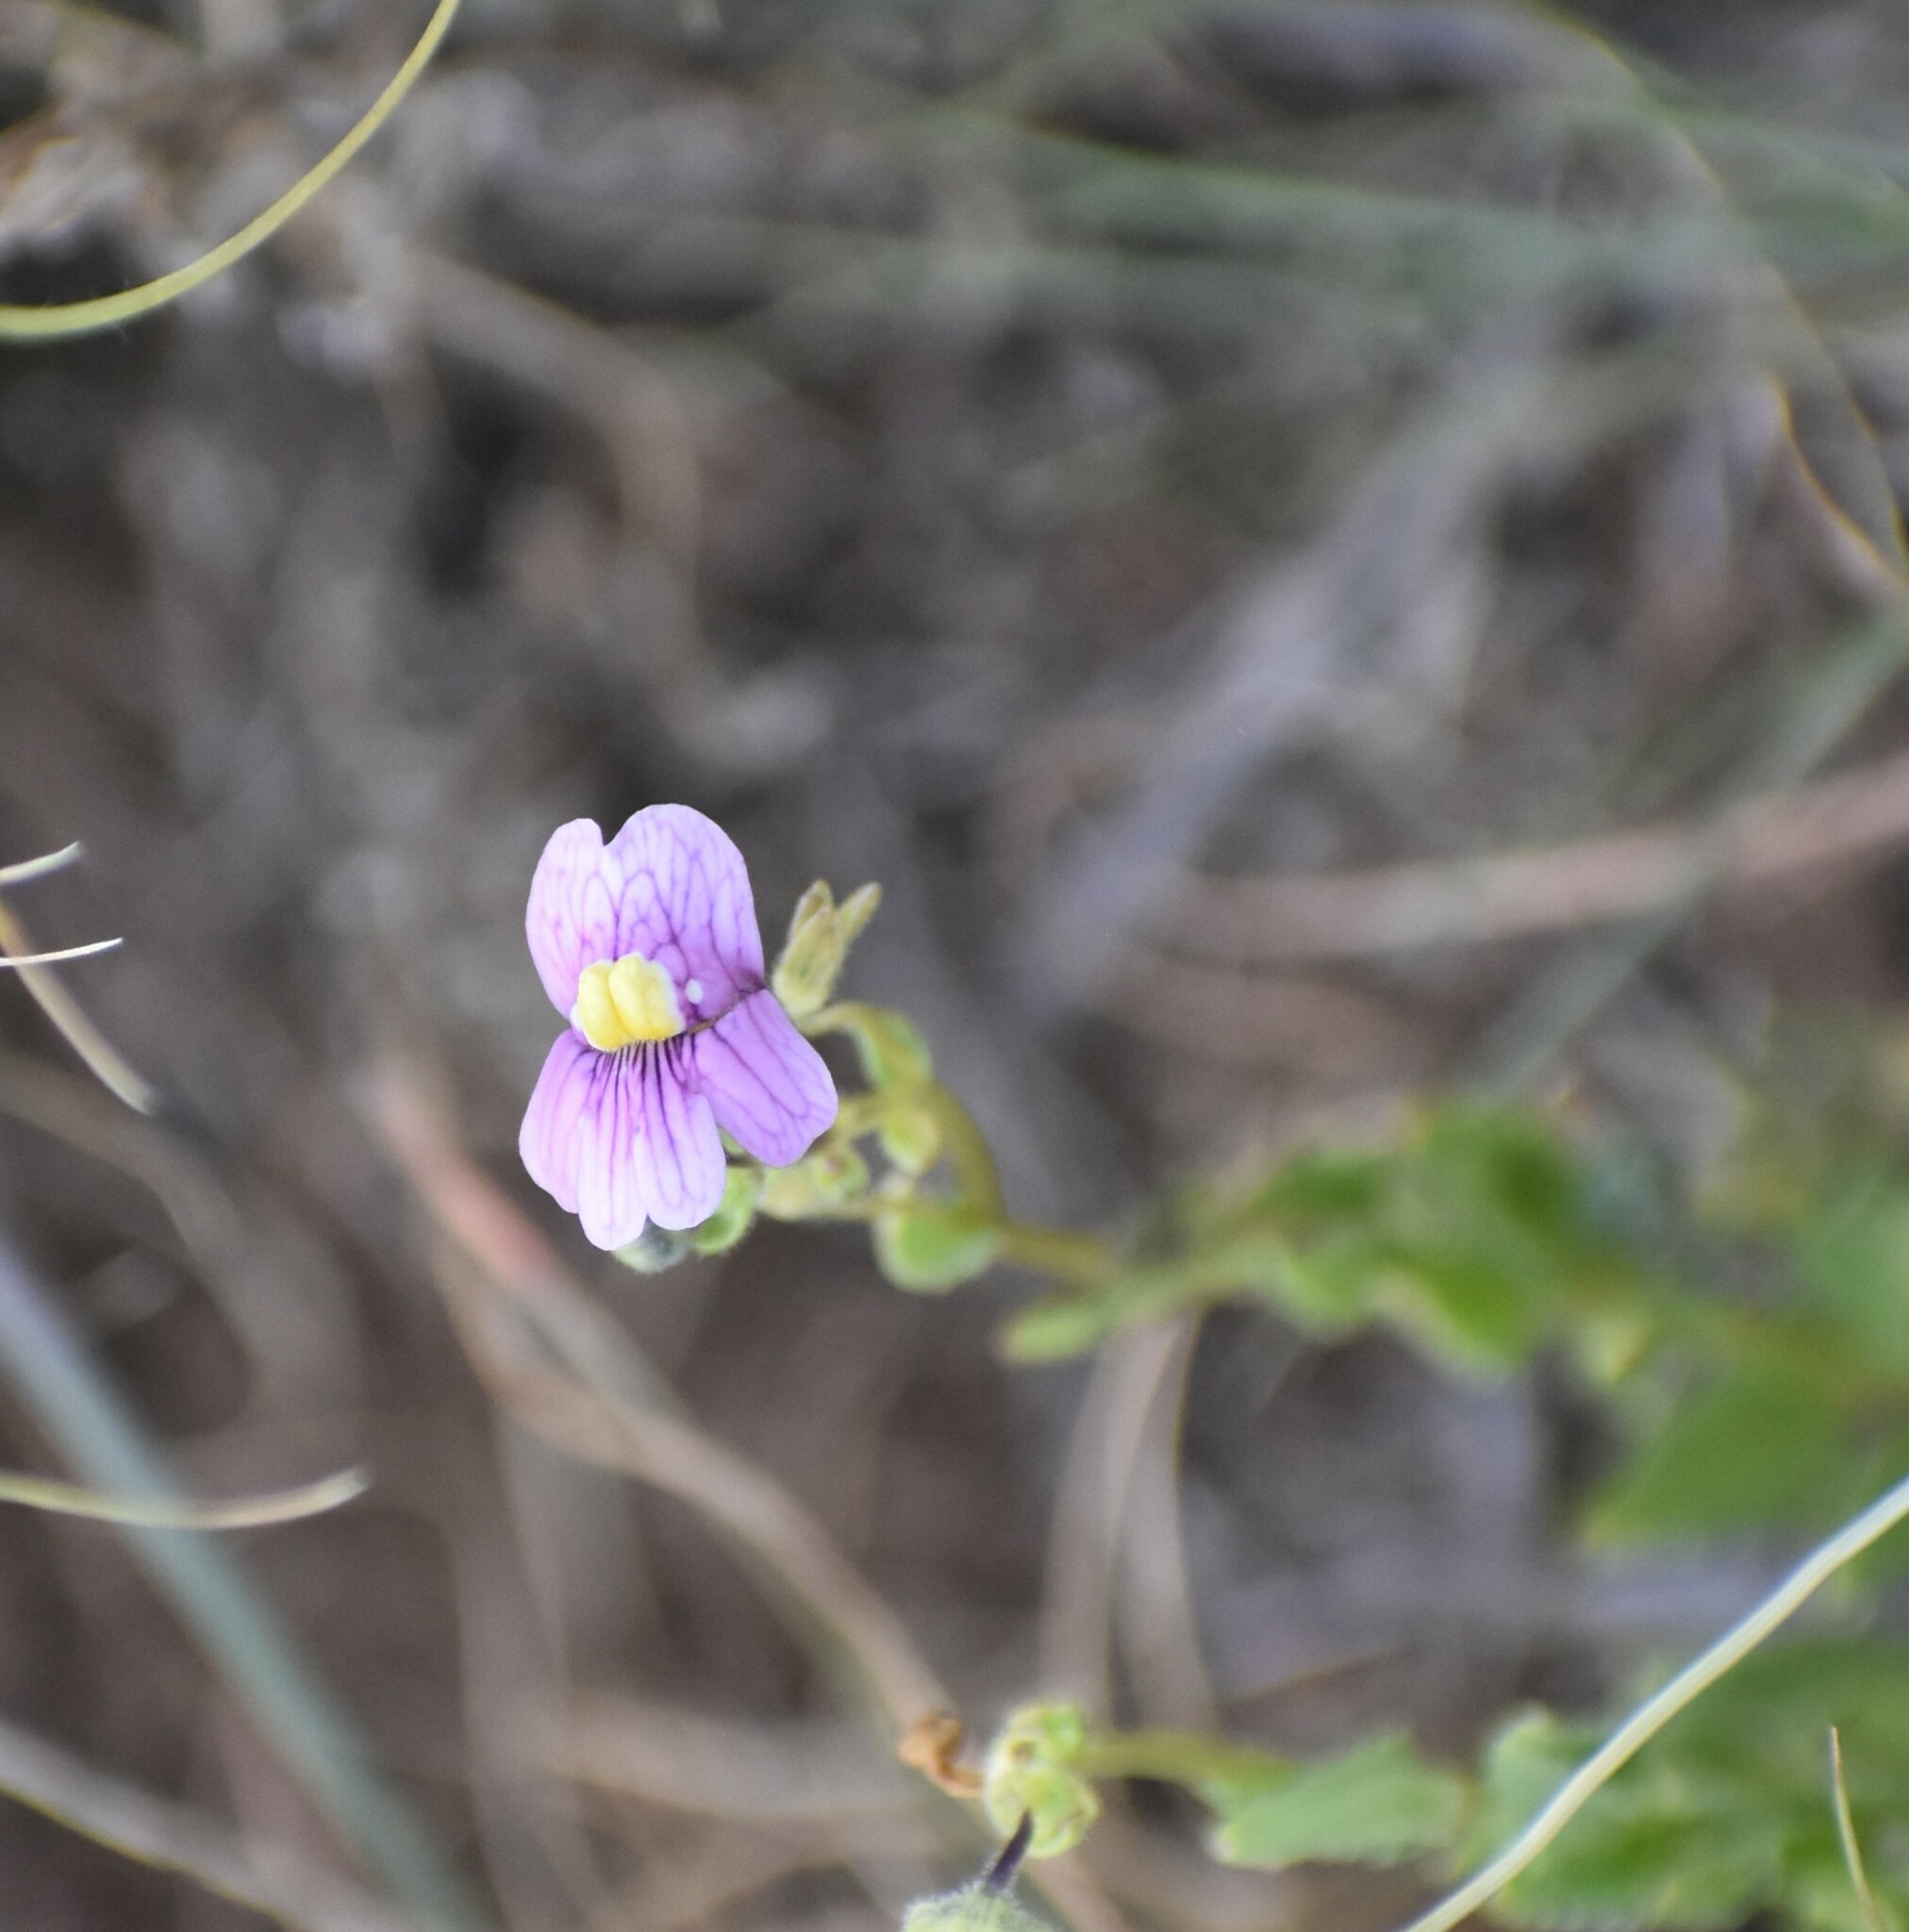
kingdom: Plantae
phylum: Tracheophyta
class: Magnoliopsida
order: Lamiales
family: Scrophulariaceae
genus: Nemesia
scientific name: Nemesia fruticans
